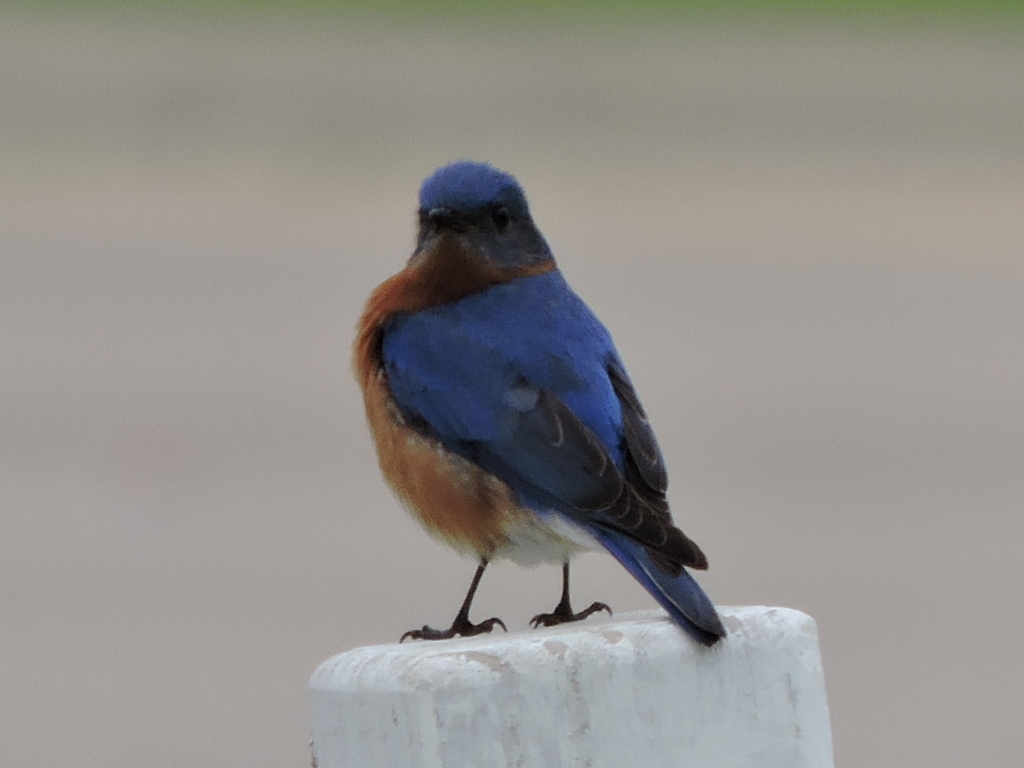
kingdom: Animalia
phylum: Chordata
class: Aves
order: Passeriformes
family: Turdidae
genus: Sialia
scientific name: Sialia sialis
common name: Eastern bluebird
